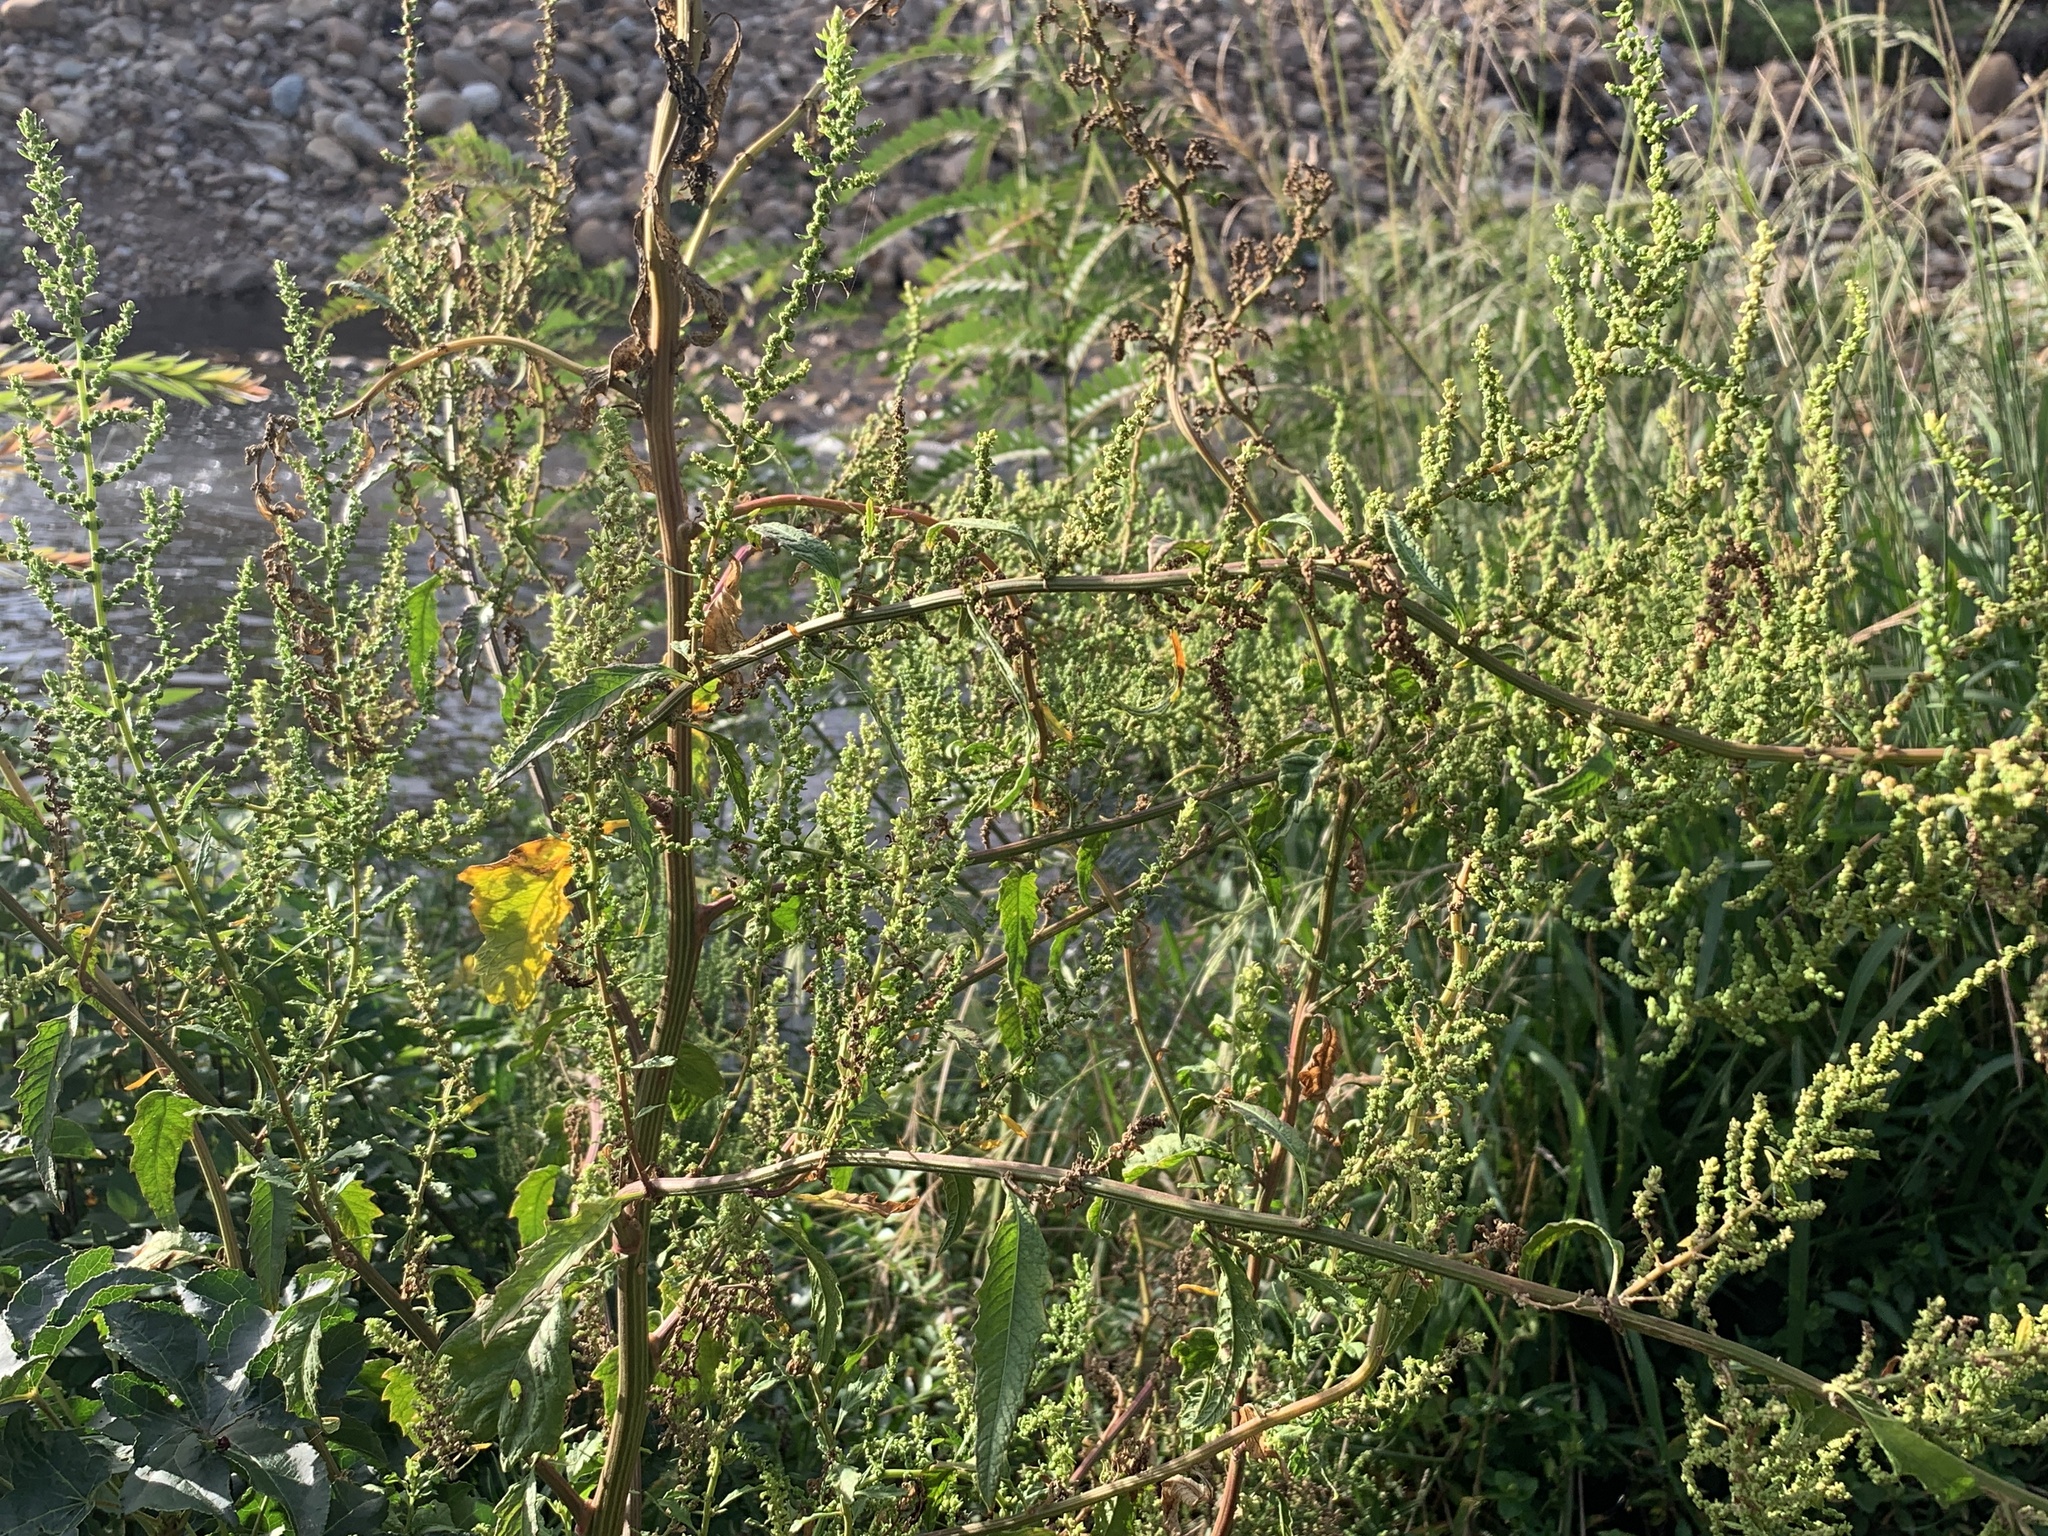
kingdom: Plantae
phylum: Tracheophyta
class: Magnoliopsida
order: Caryophyllales
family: Amaranthaceae
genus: Dysphania
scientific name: Dysphania ambrosioides
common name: Wormseed
